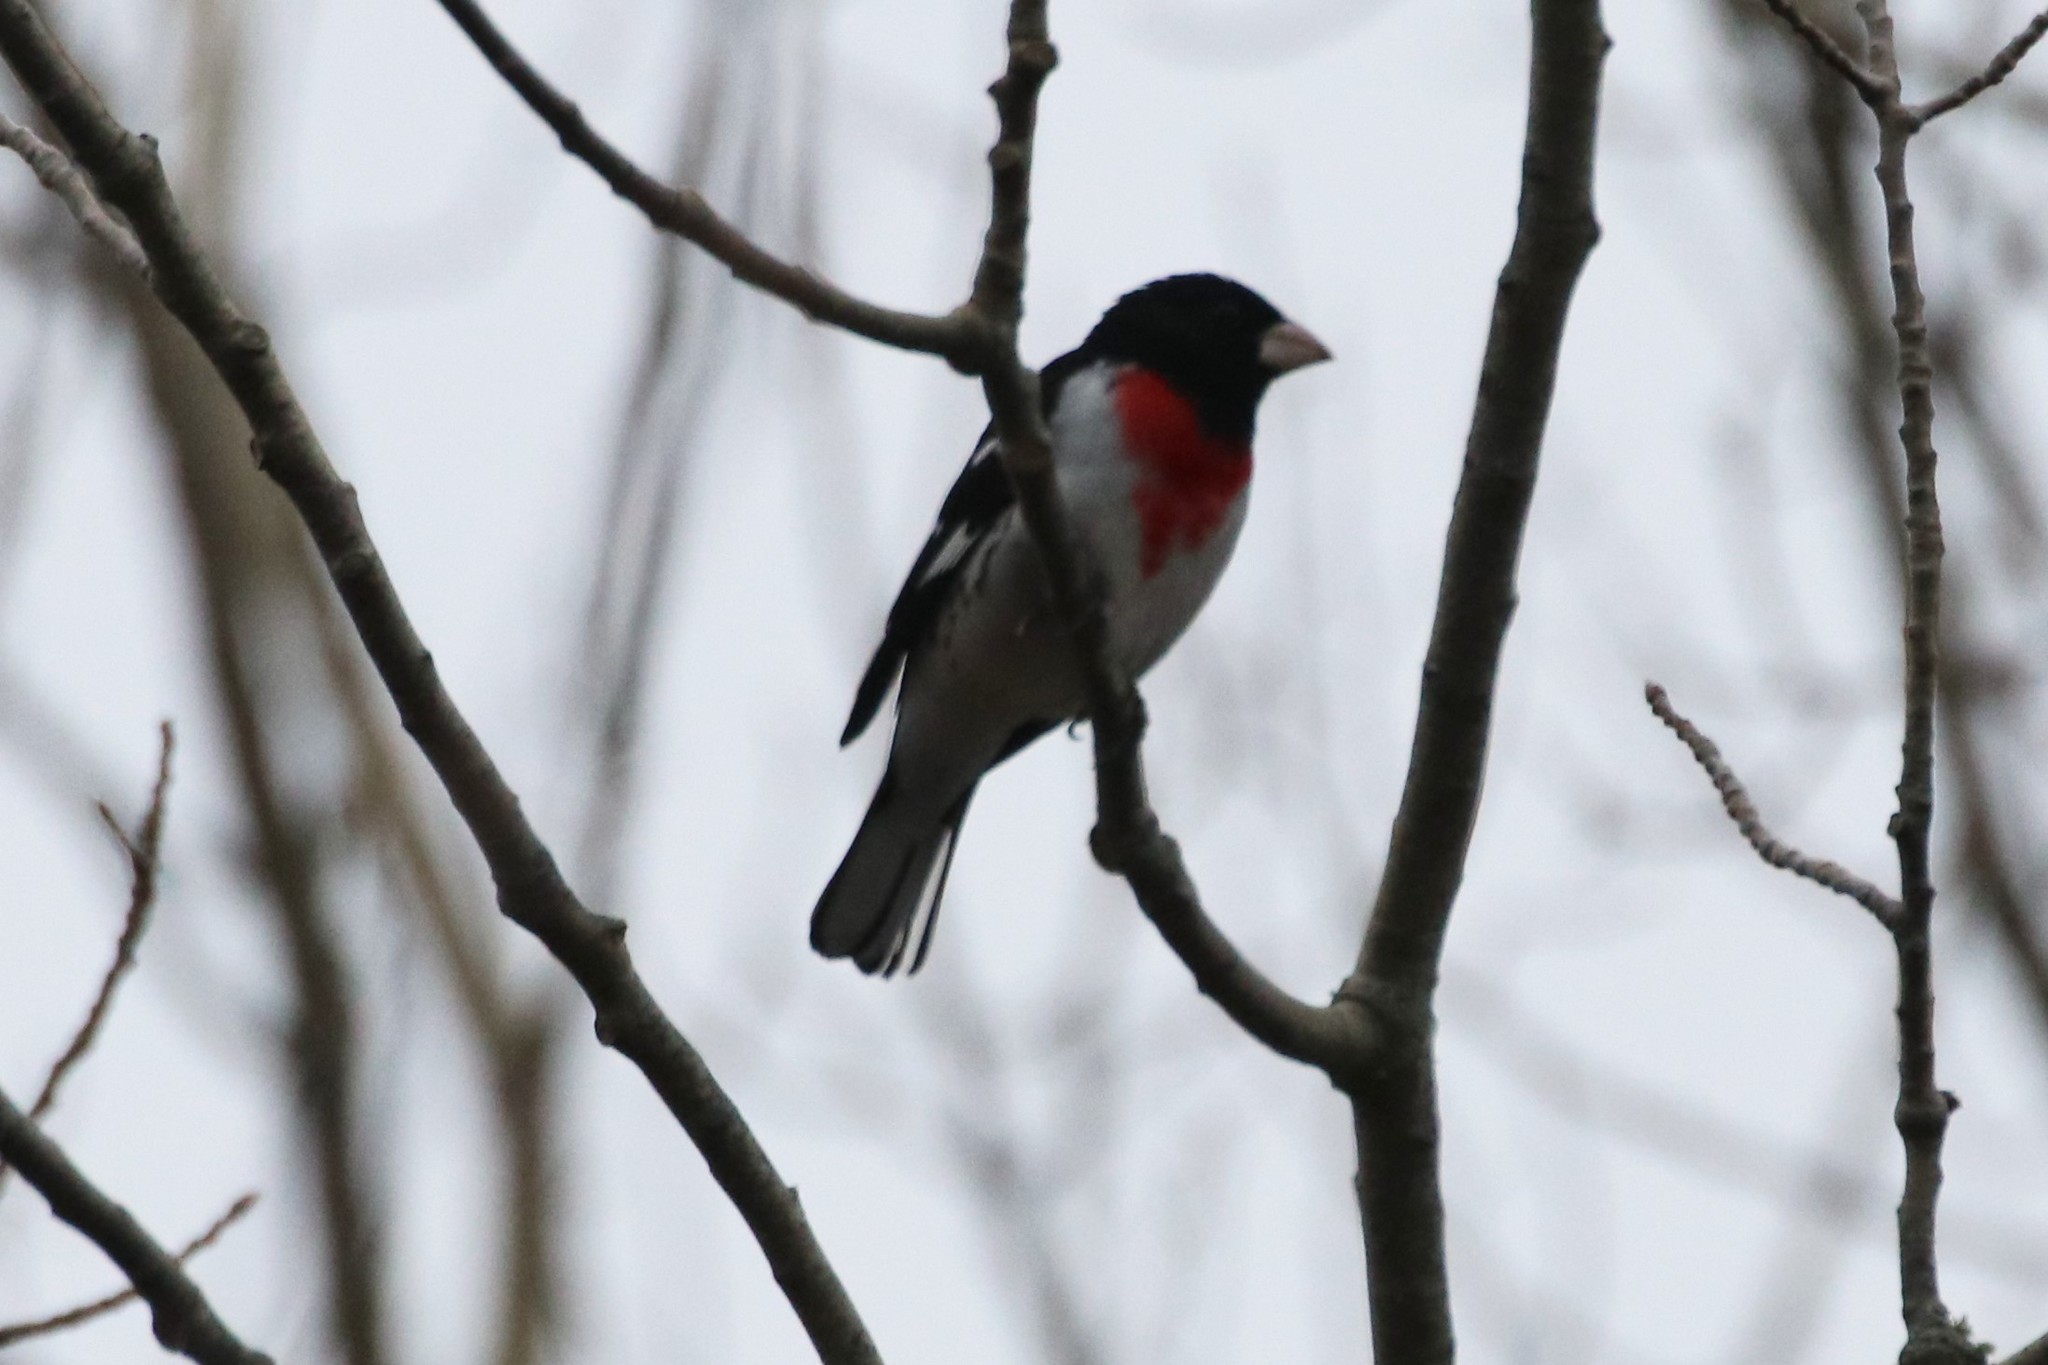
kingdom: Animalia
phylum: Chordata
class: Aves
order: Passeriformes
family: Cardinalidae
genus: Pheucticus
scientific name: Pheucticus ludovicianus
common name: Rose-breasted grosbeak
